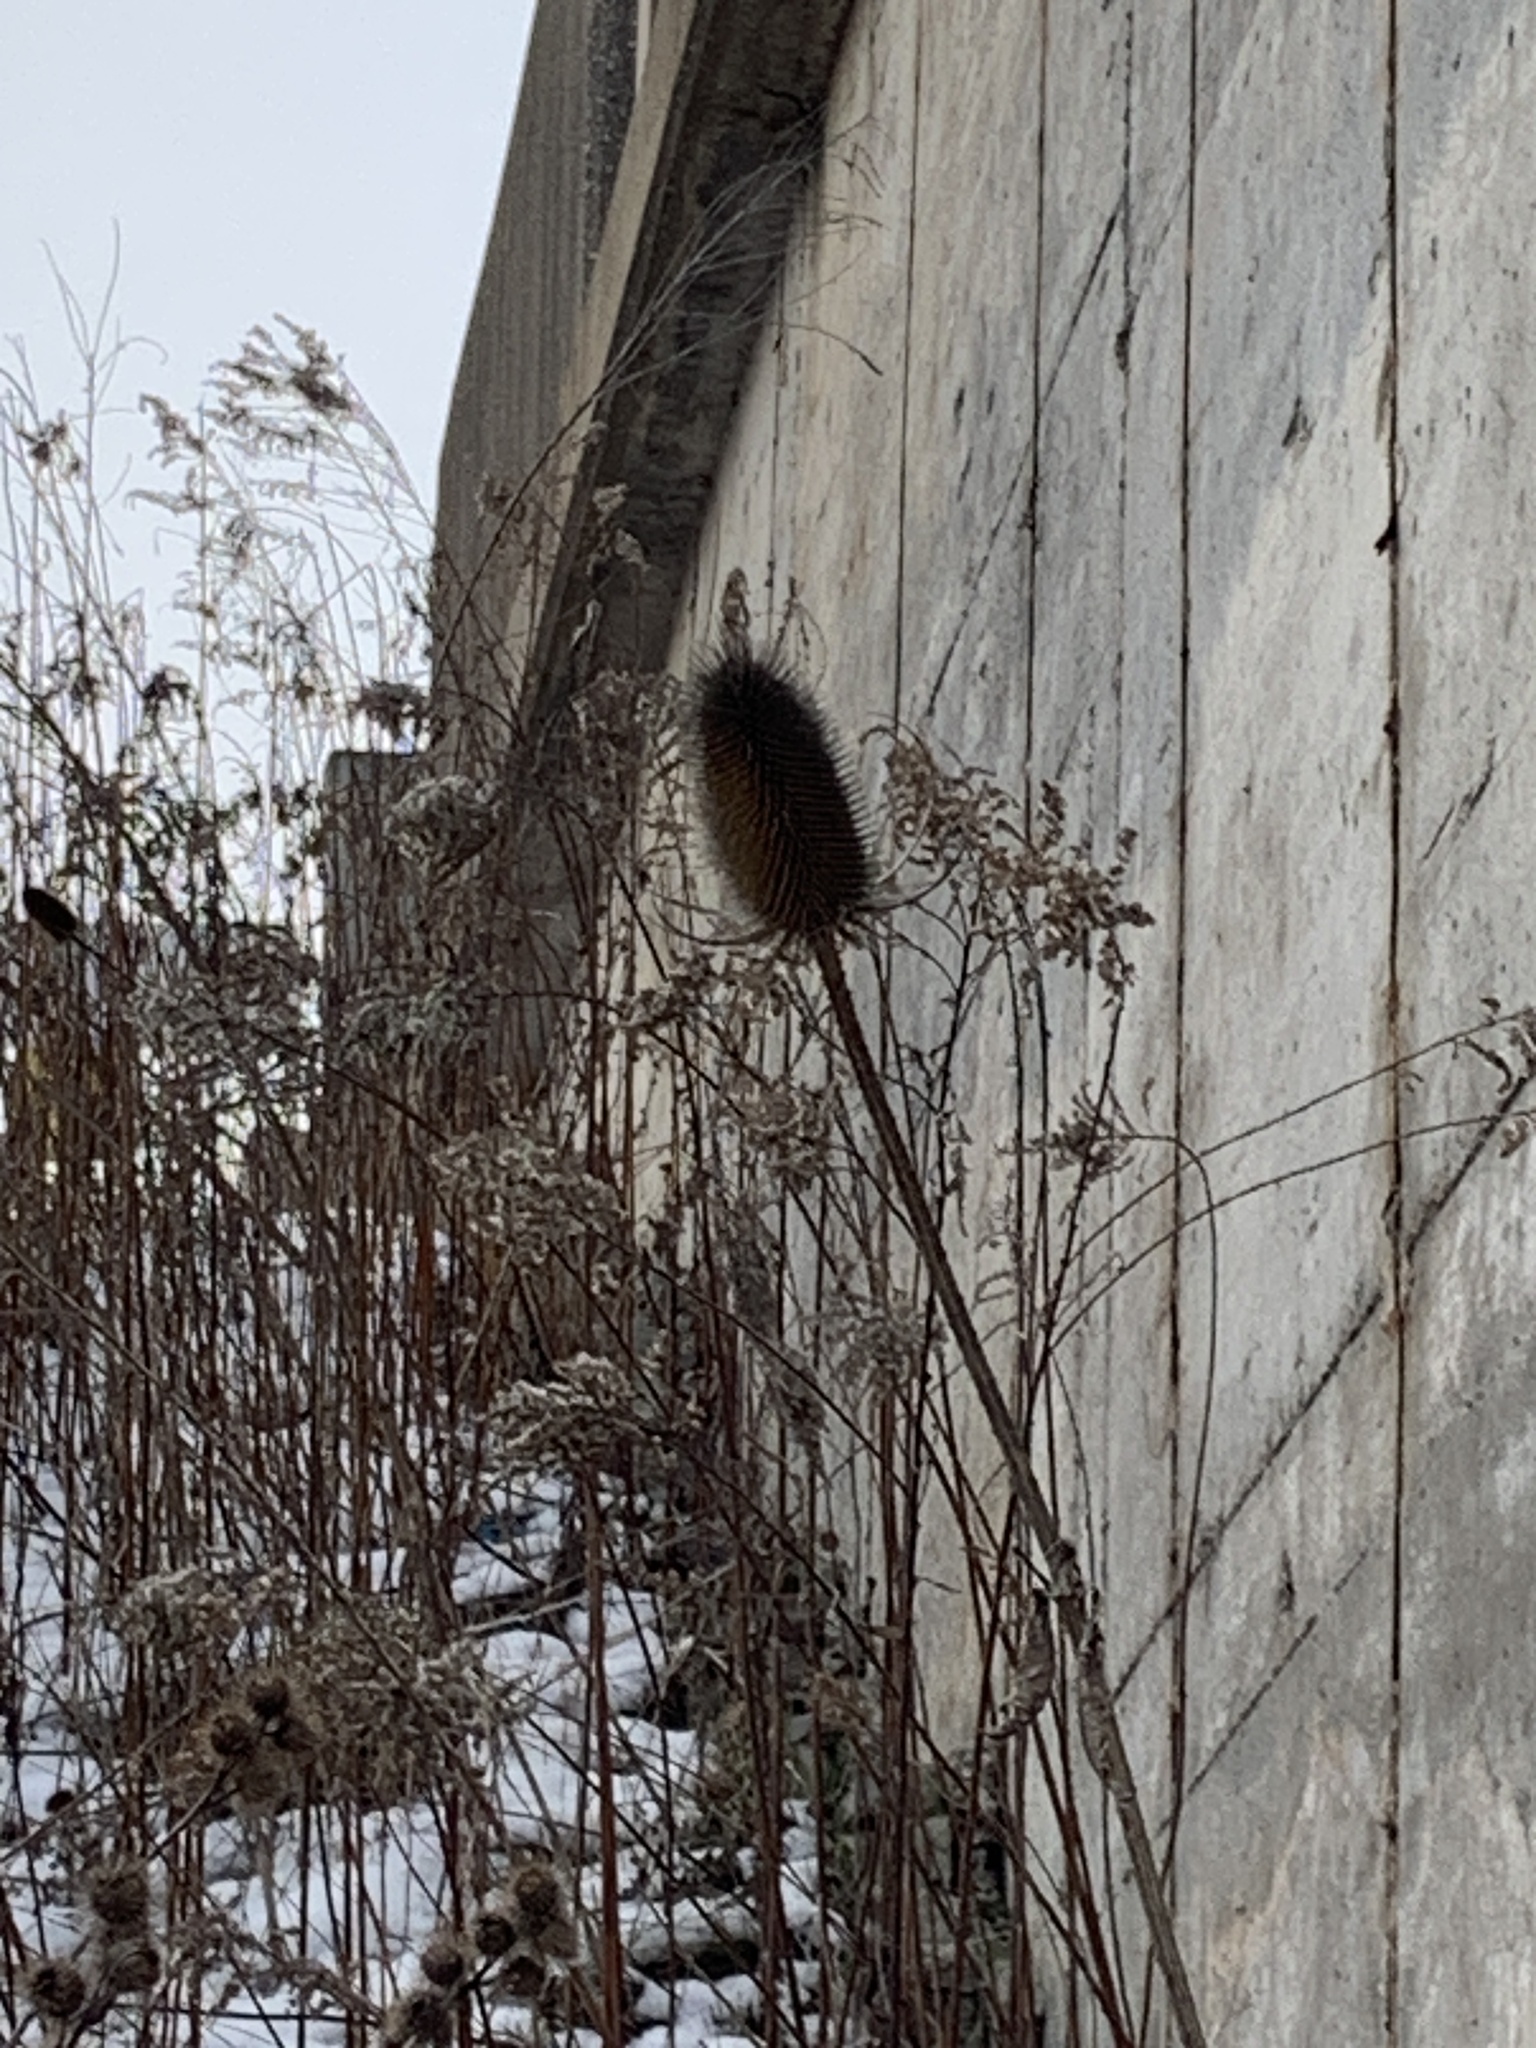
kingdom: Plantae
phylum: Tracheophyta
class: Magnoliopsida
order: Dipsacales
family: Caprifoliaceae
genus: Dipsacus
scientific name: Dipsacus fullonum
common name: Teasel
